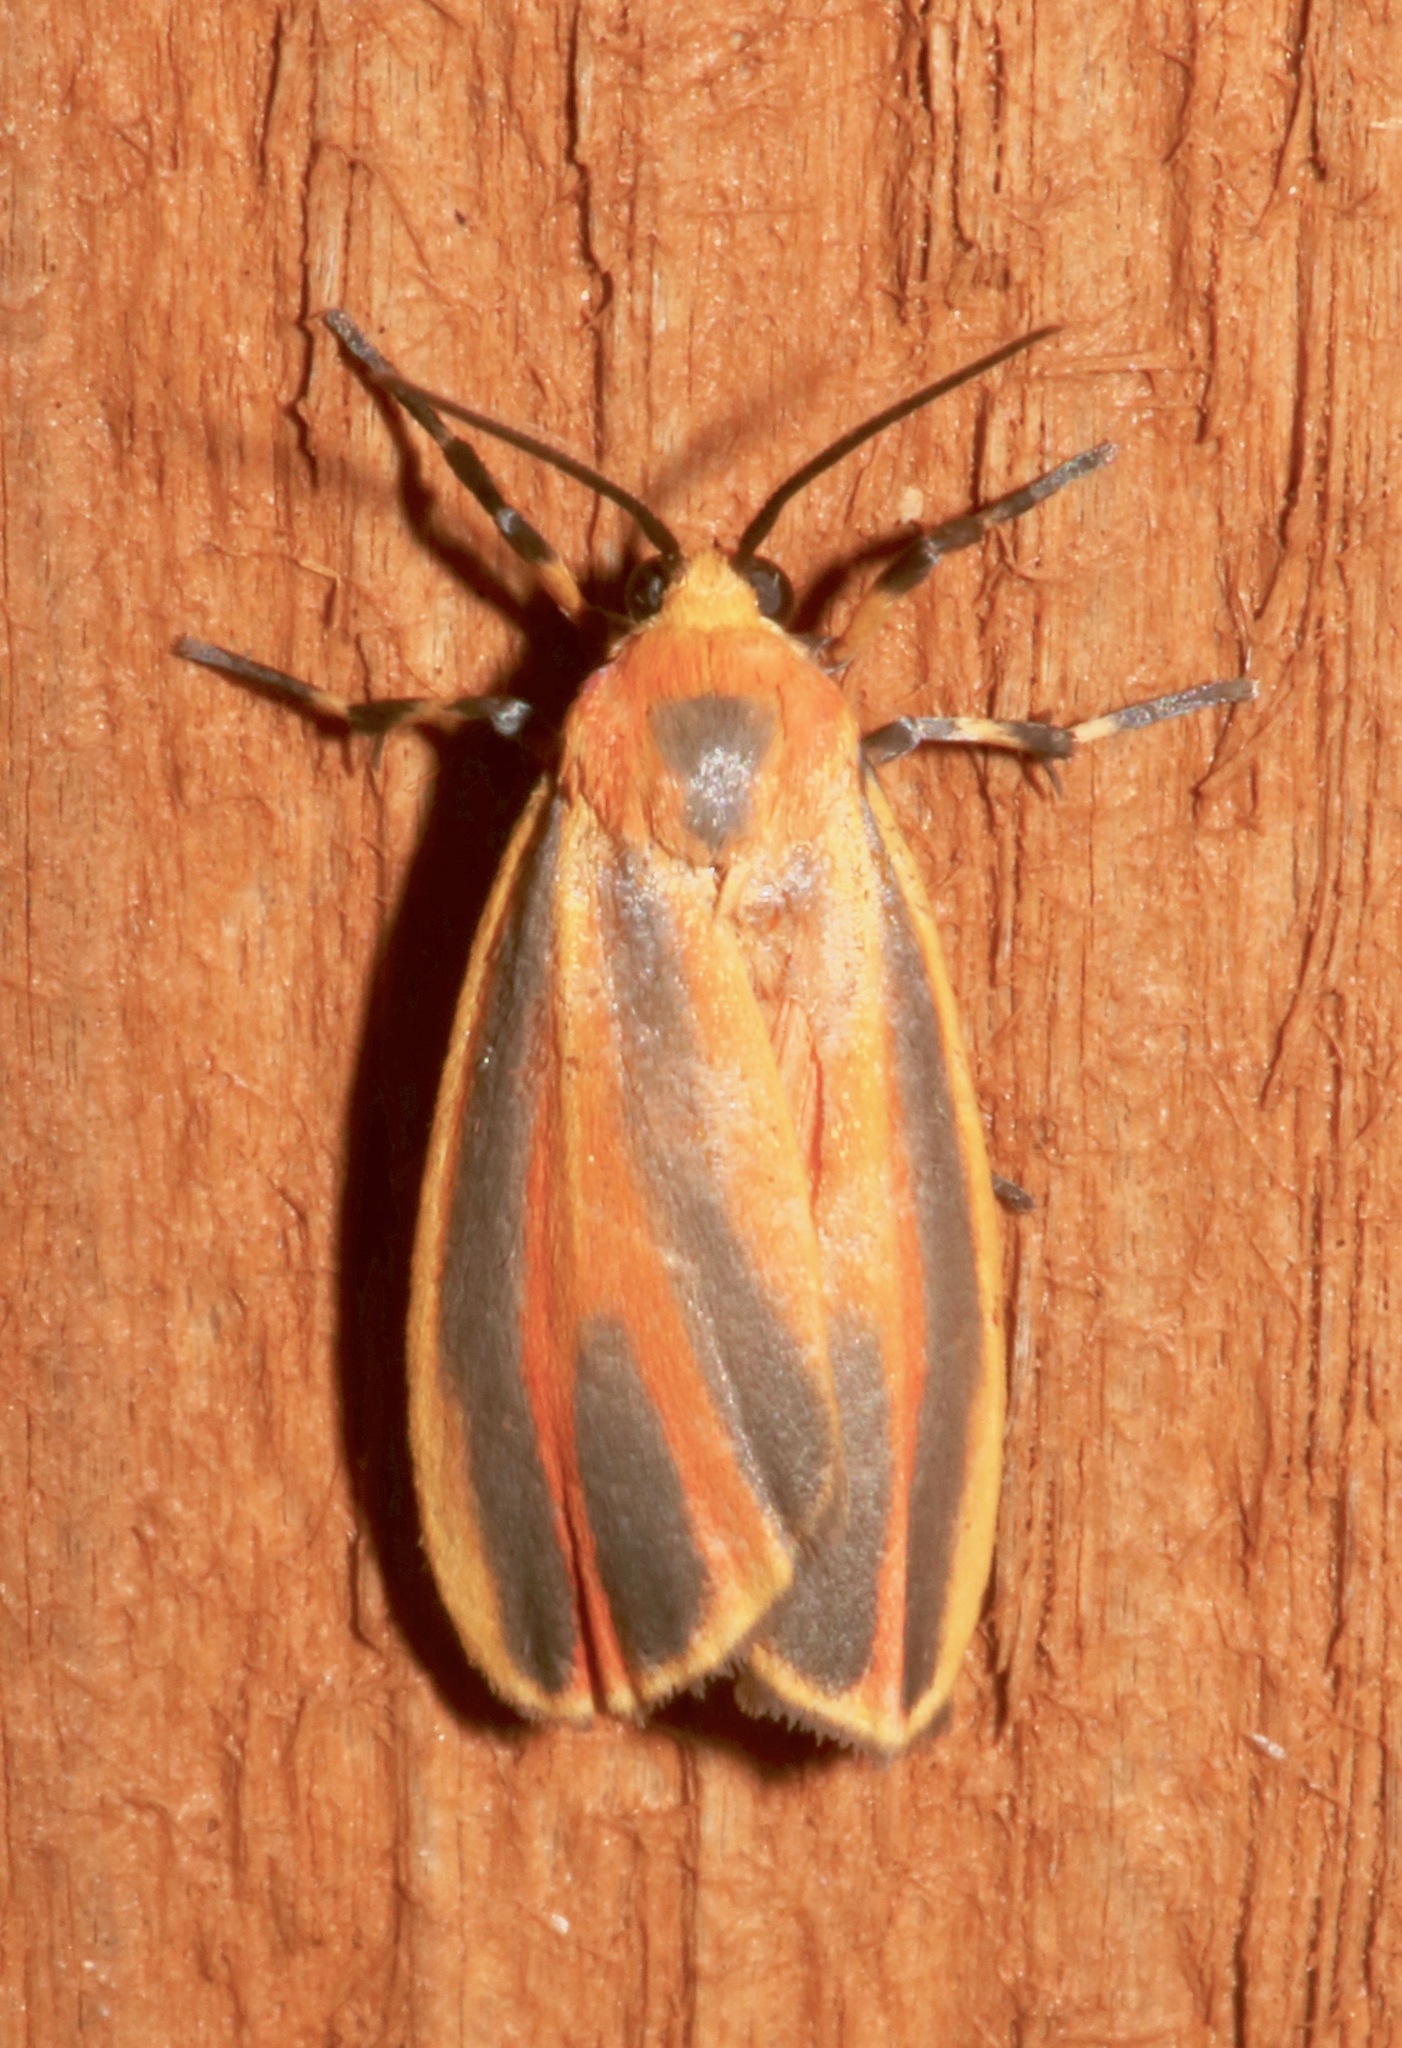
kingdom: Animalia
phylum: Arthropoda
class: Insecta
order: Lepidoptera
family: Erebidae
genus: Hypoprepia
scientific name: Hypoprepia fucosa
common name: Painted lichen moth
